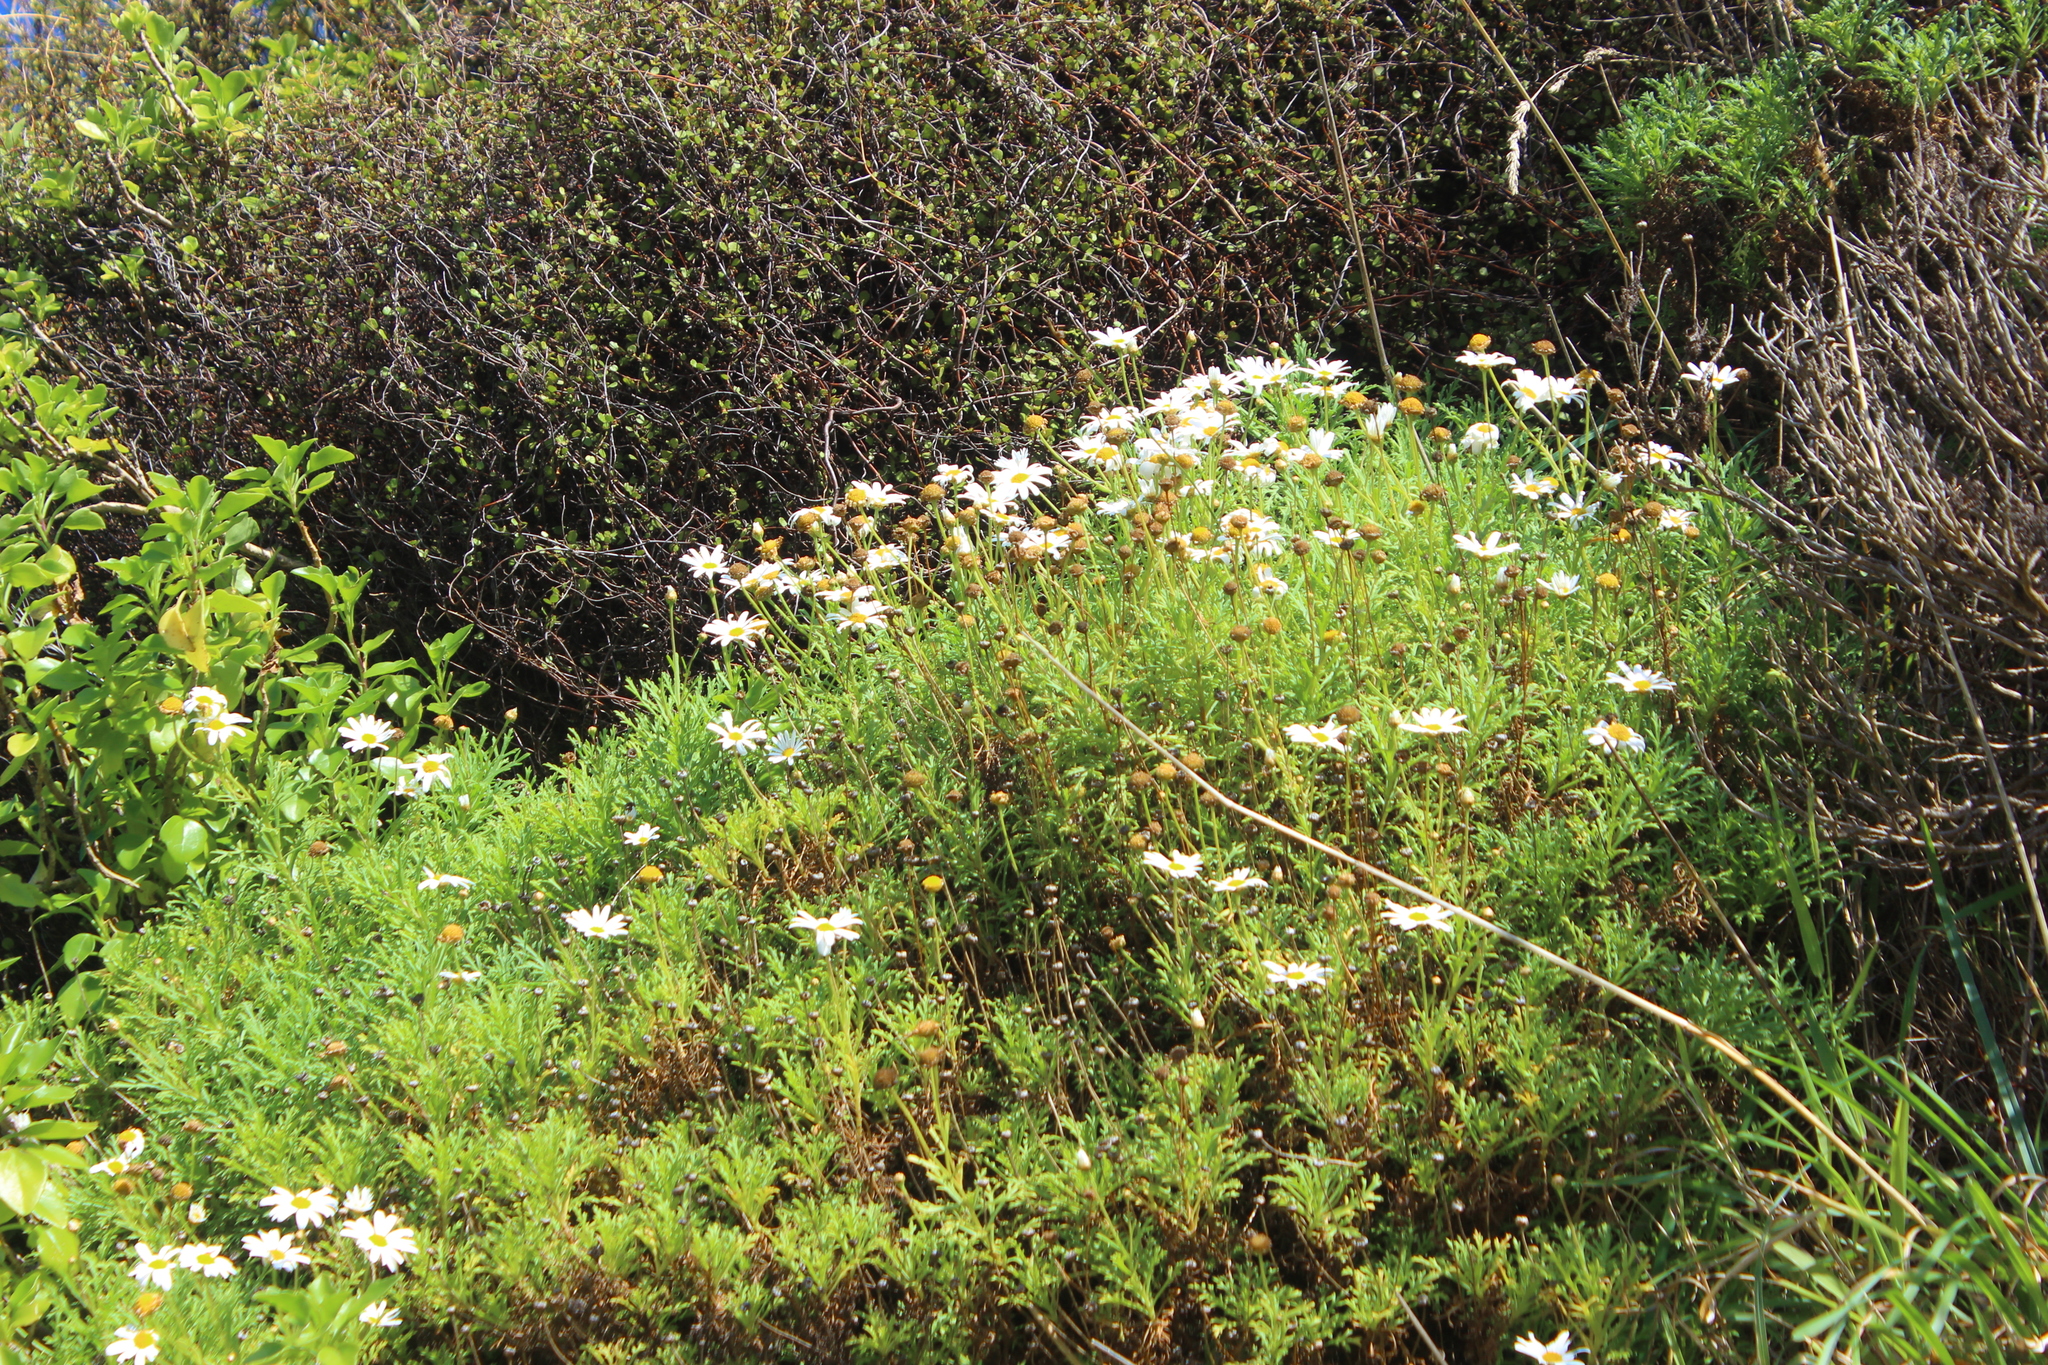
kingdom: Plantae
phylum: Tracheophyta
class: Magnoliopsida
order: Asterales
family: Asteraceae
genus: Argyranthemum
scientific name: Argyranthemum frutescens
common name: Paris daisy
